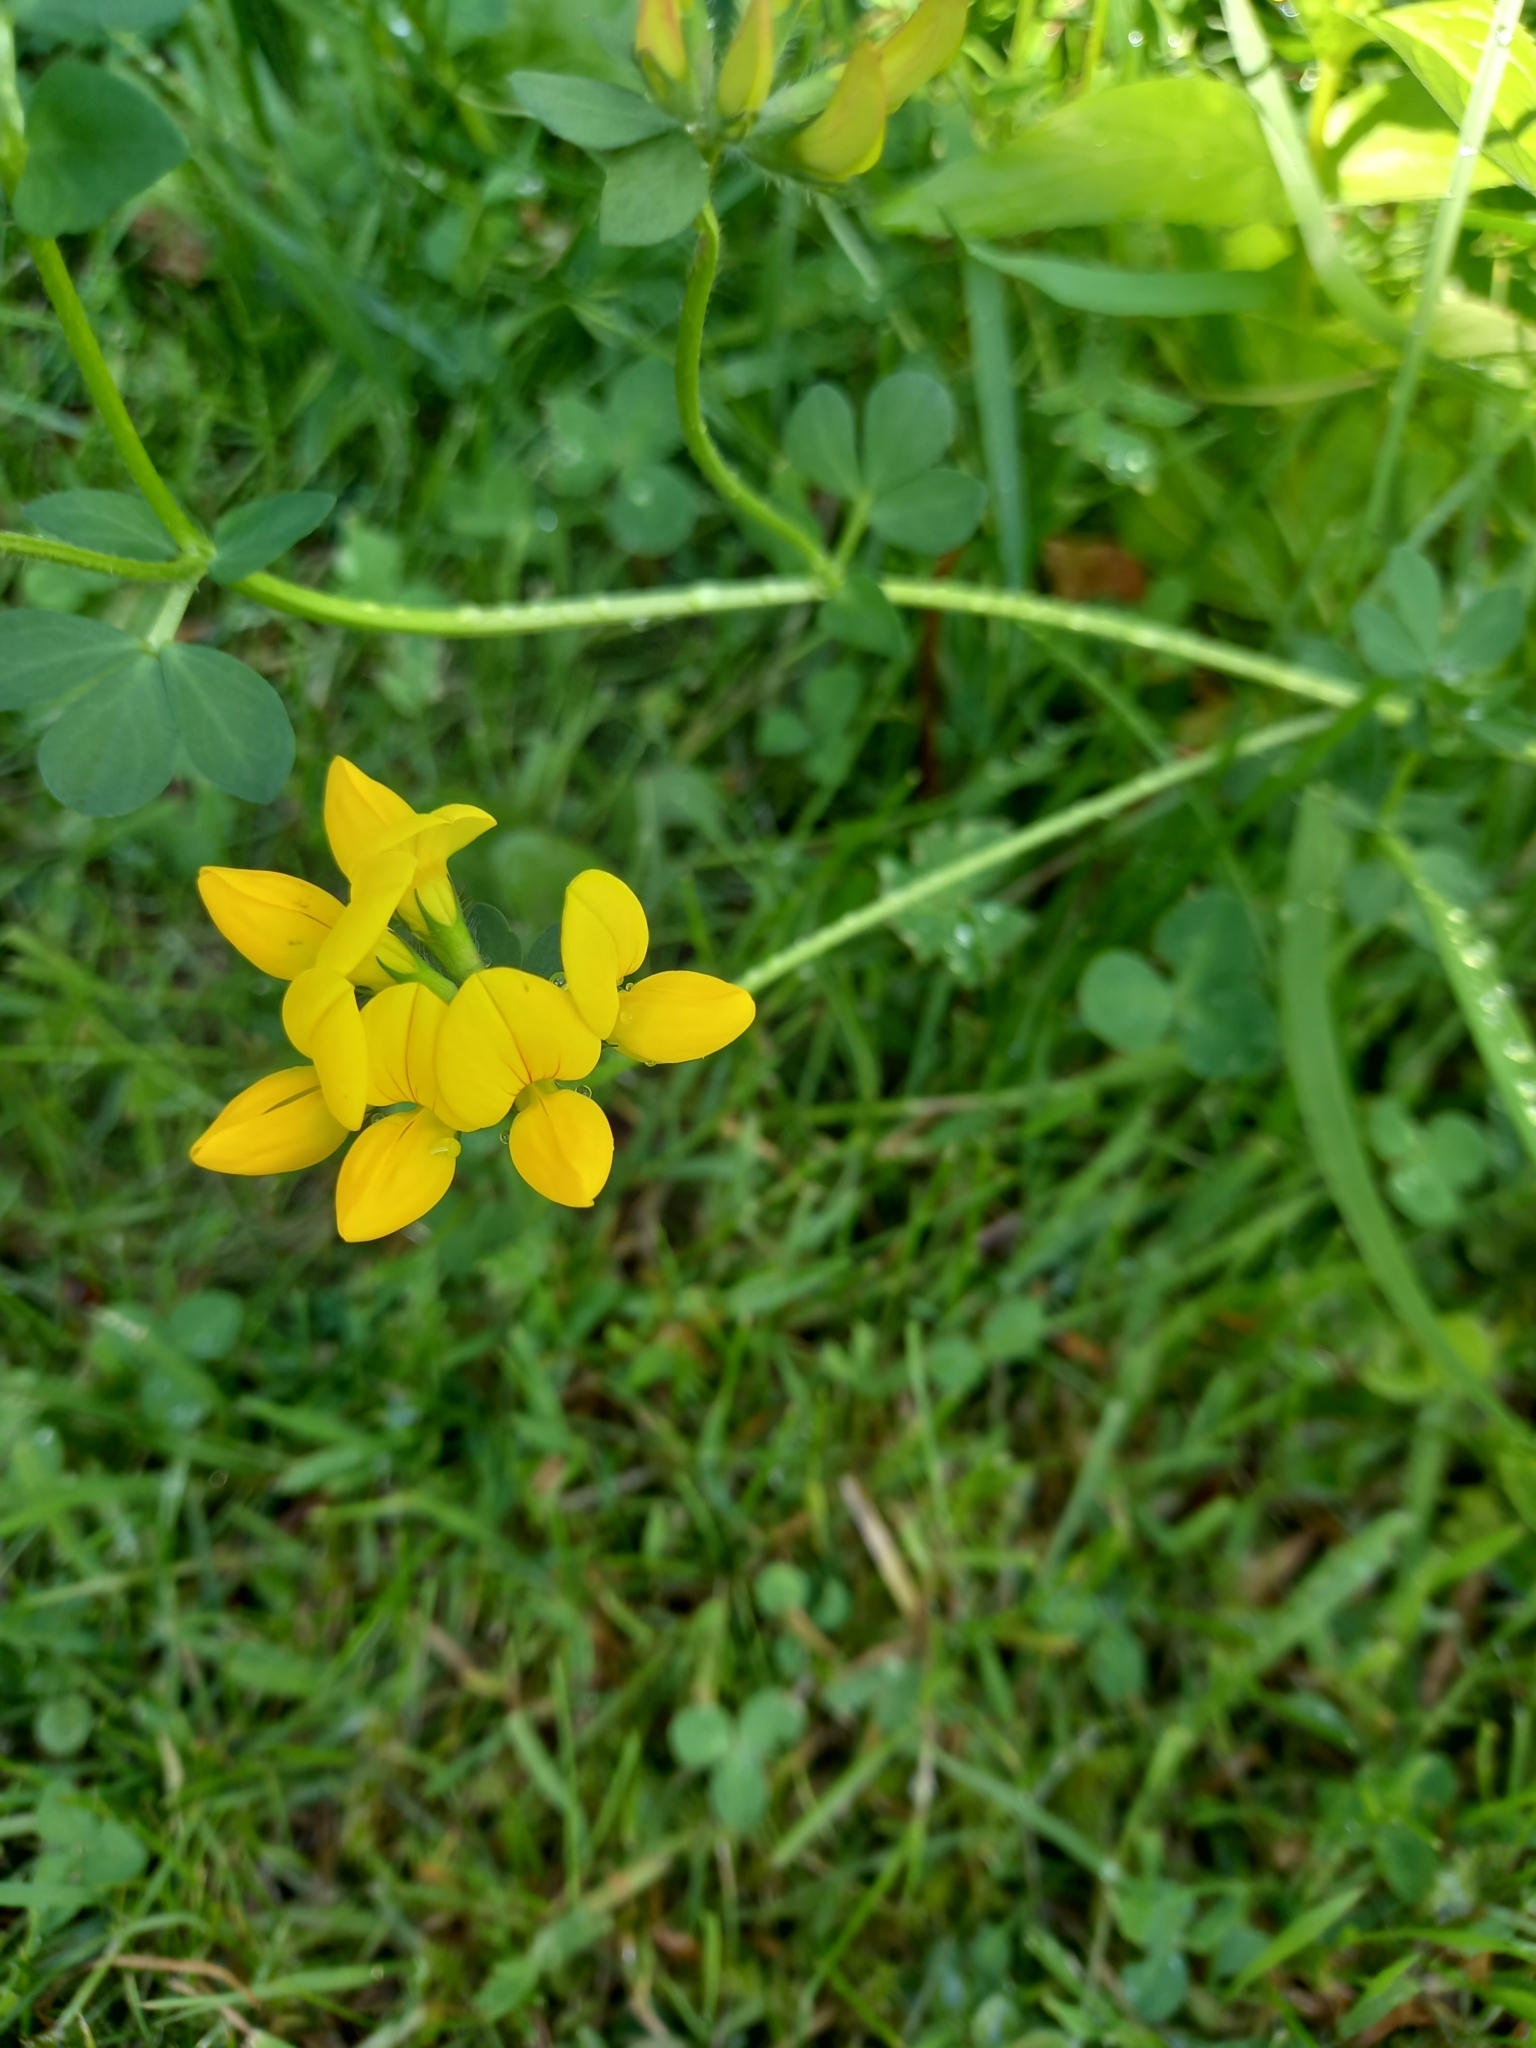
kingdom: Plantae
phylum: Tracheophyta
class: Magnoliopsida
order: Fabales
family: Fabaceae
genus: Lotus
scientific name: Lotus corniculatus
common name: Common bird's-foot-trefoil
